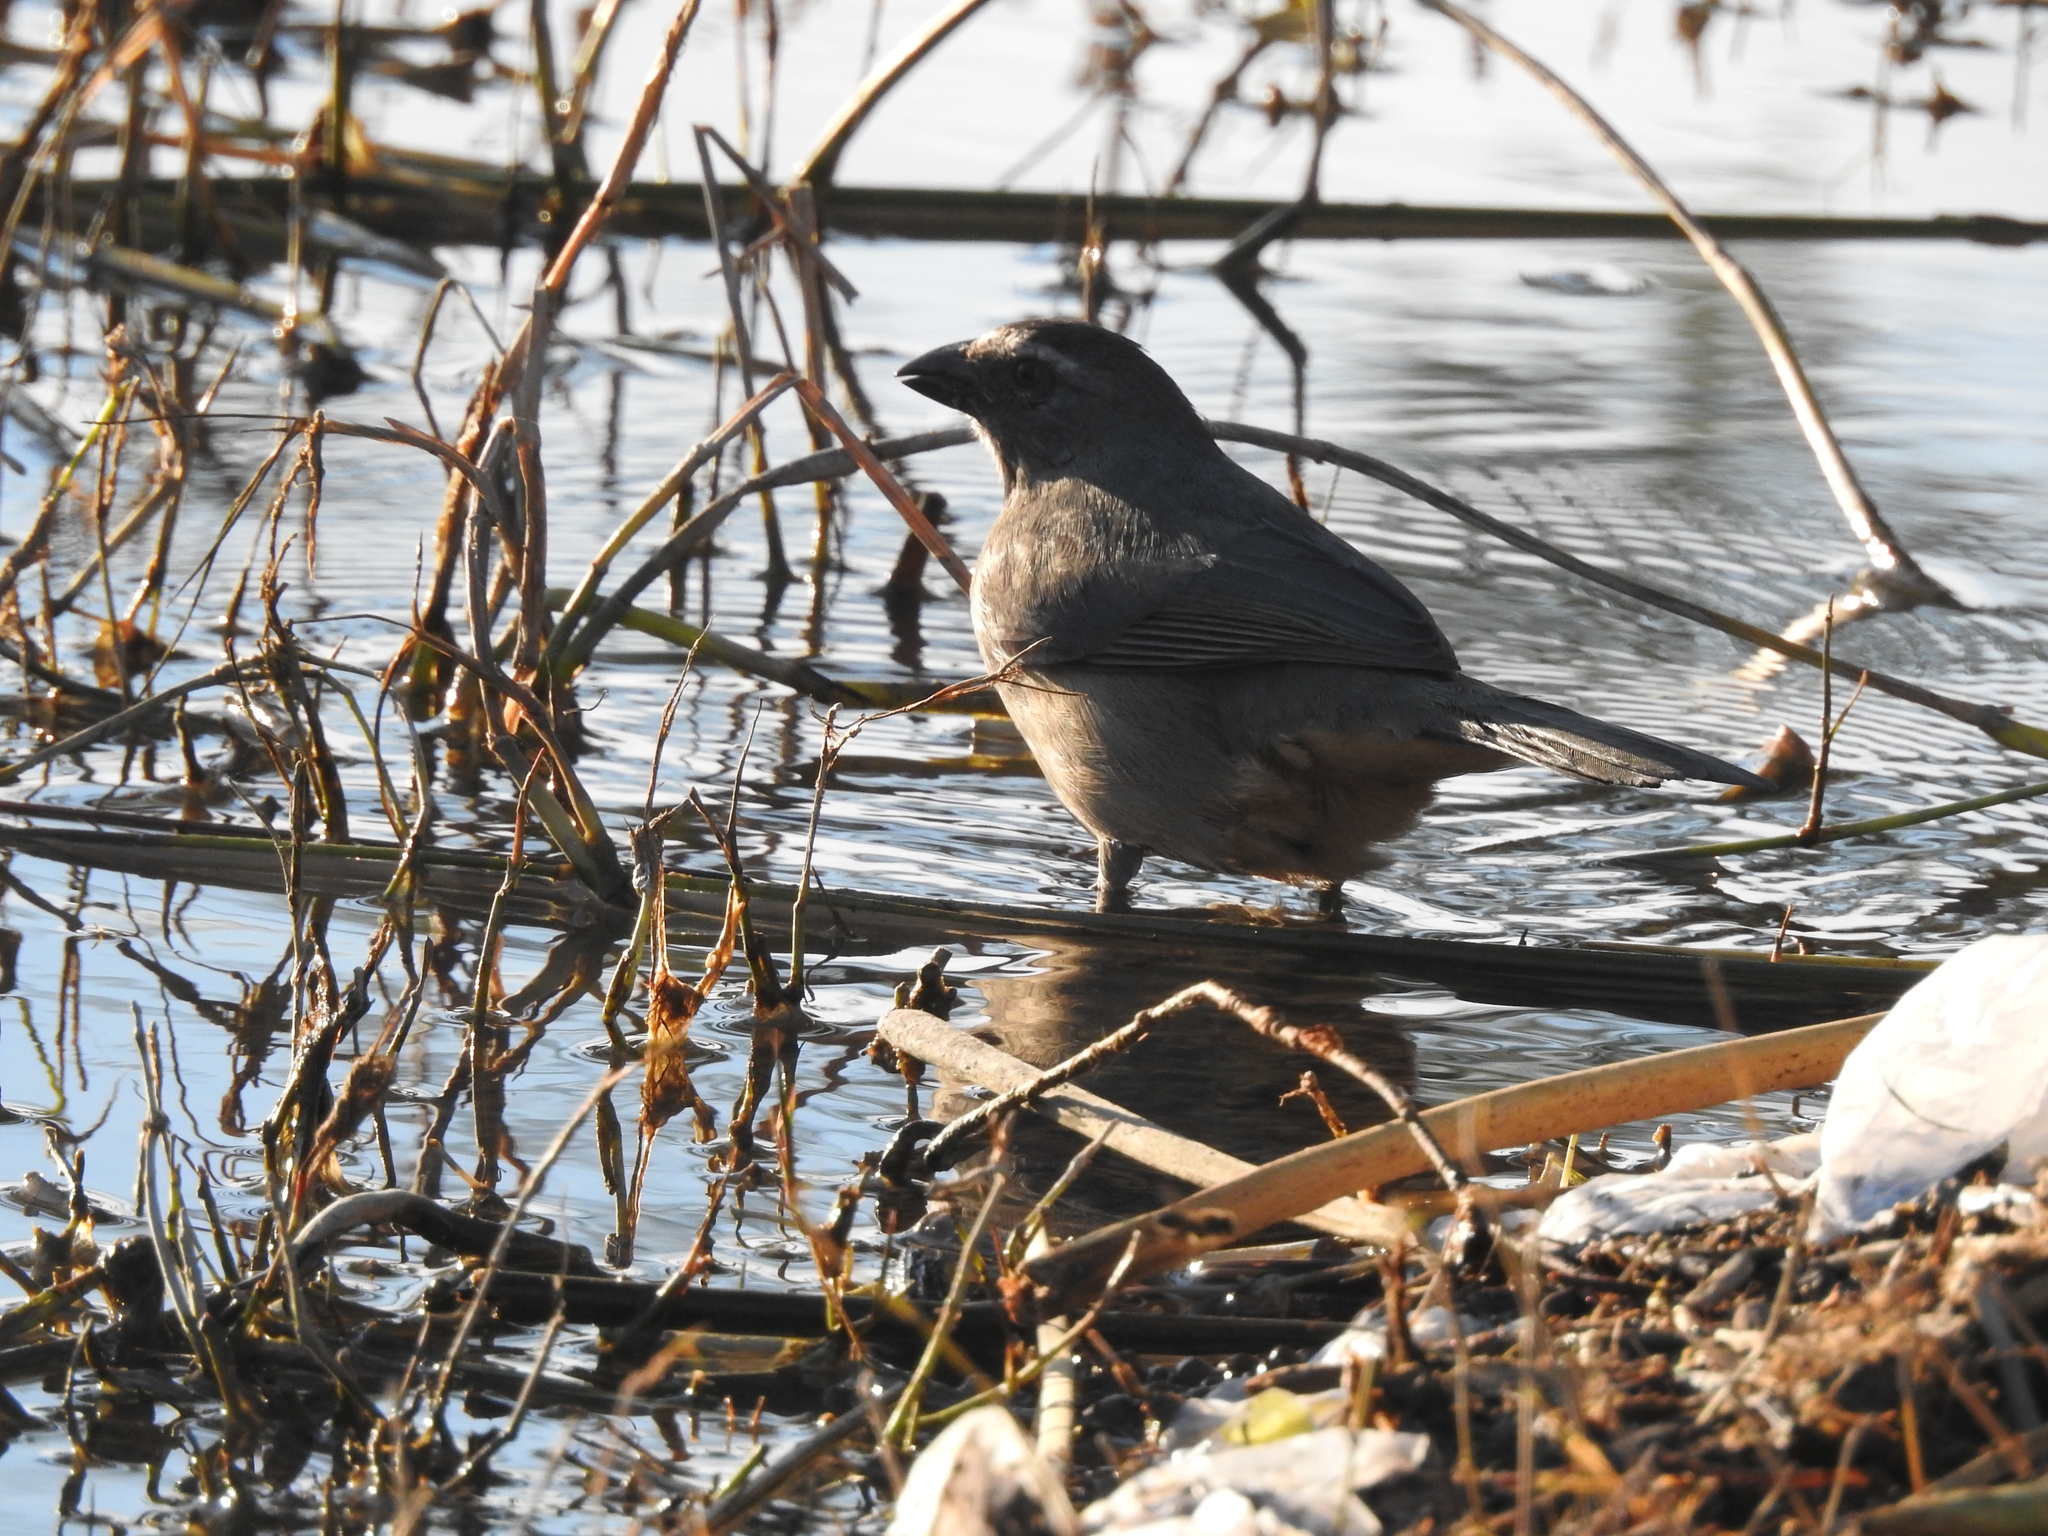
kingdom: Animalia
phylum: Chordata
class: Aves
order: Passeriformes
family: Thraupidae
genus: Saltator
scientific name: Saltator coerulescens
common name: Grayish saltator
